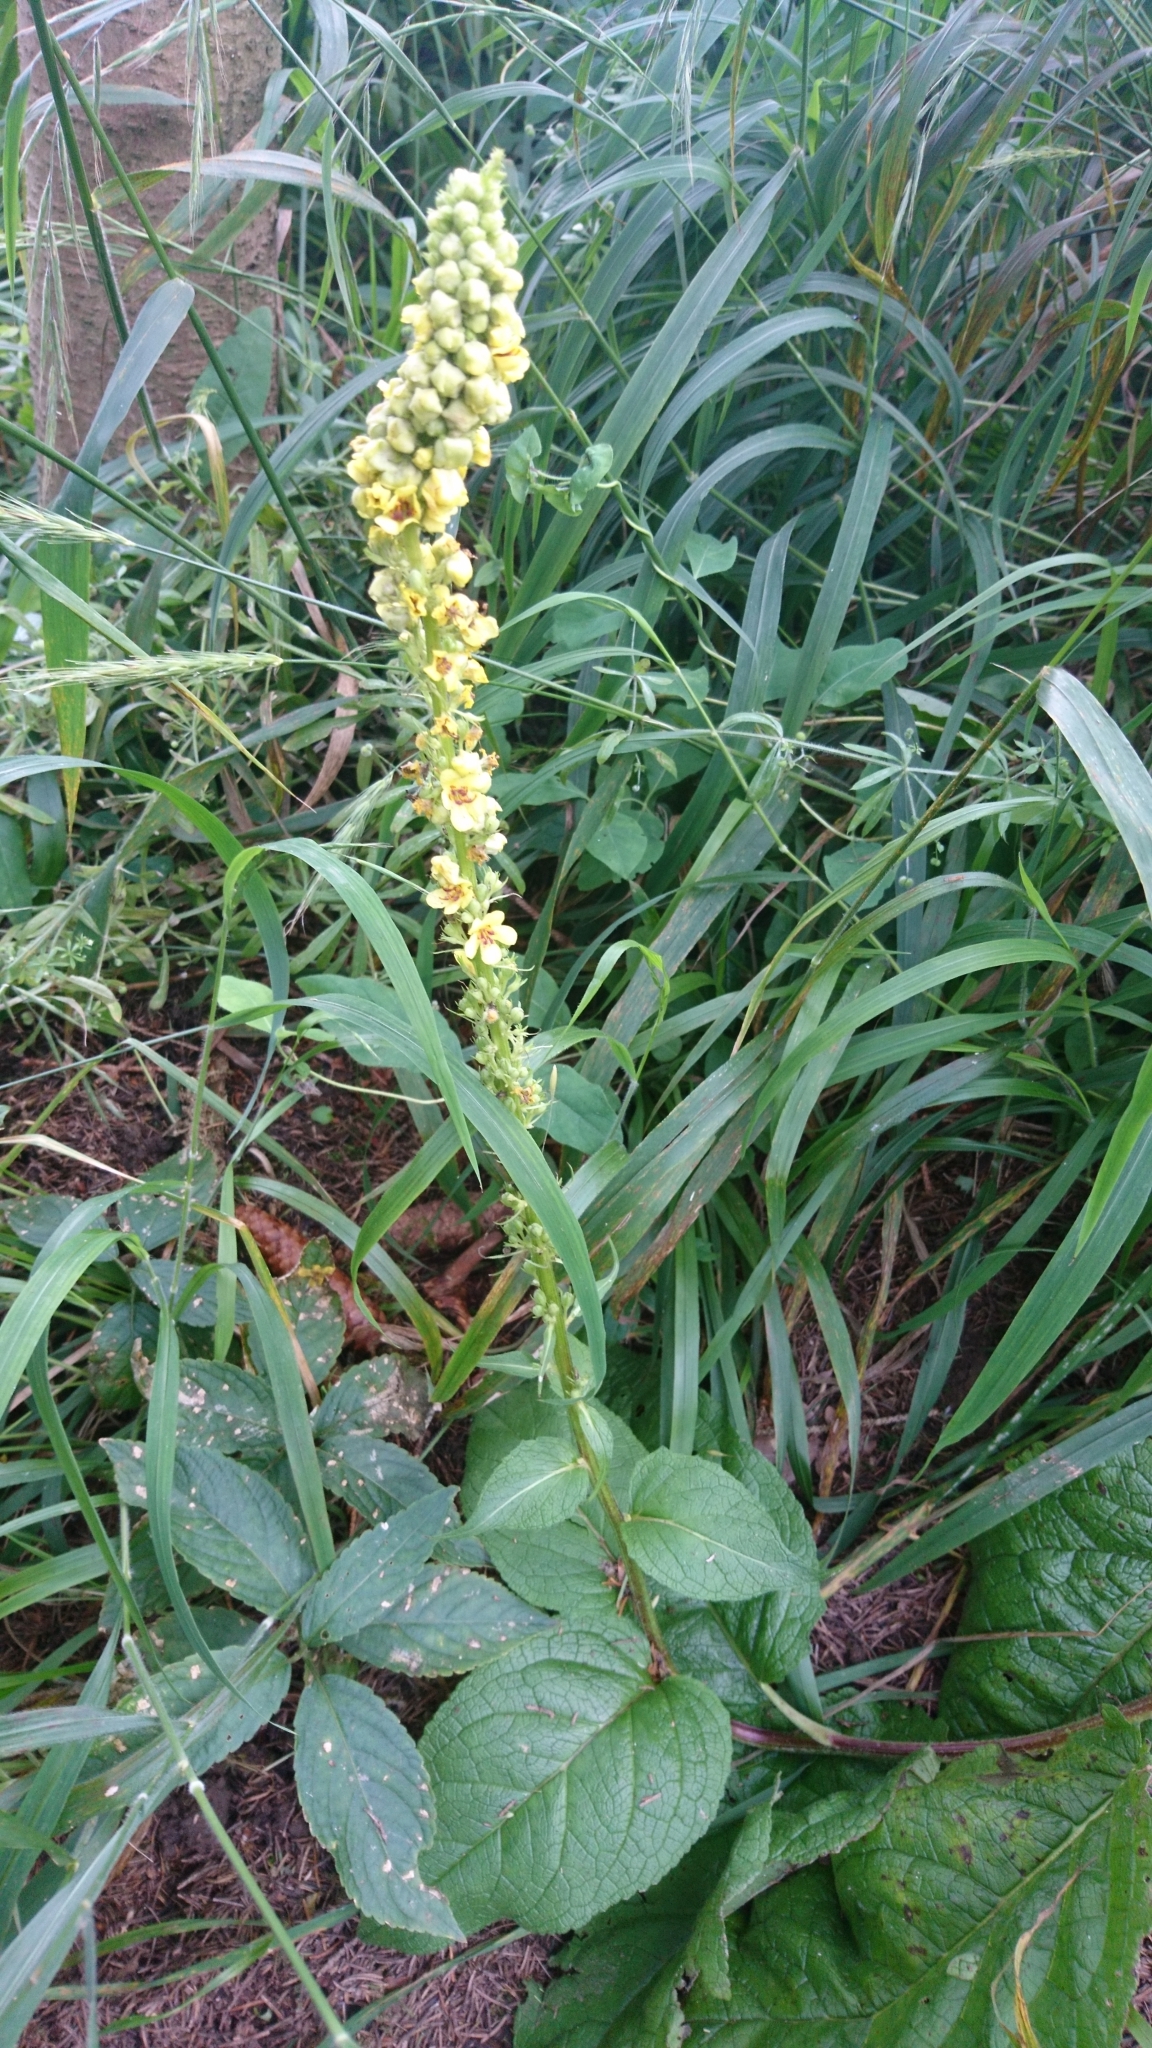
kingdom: Plantae
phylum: Tracheophyta
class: Magnoliopsida
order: Lamiales
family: Scrophulariaceae
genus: Verbascum
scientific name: Verbascum nigrum
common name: Dark mullein
